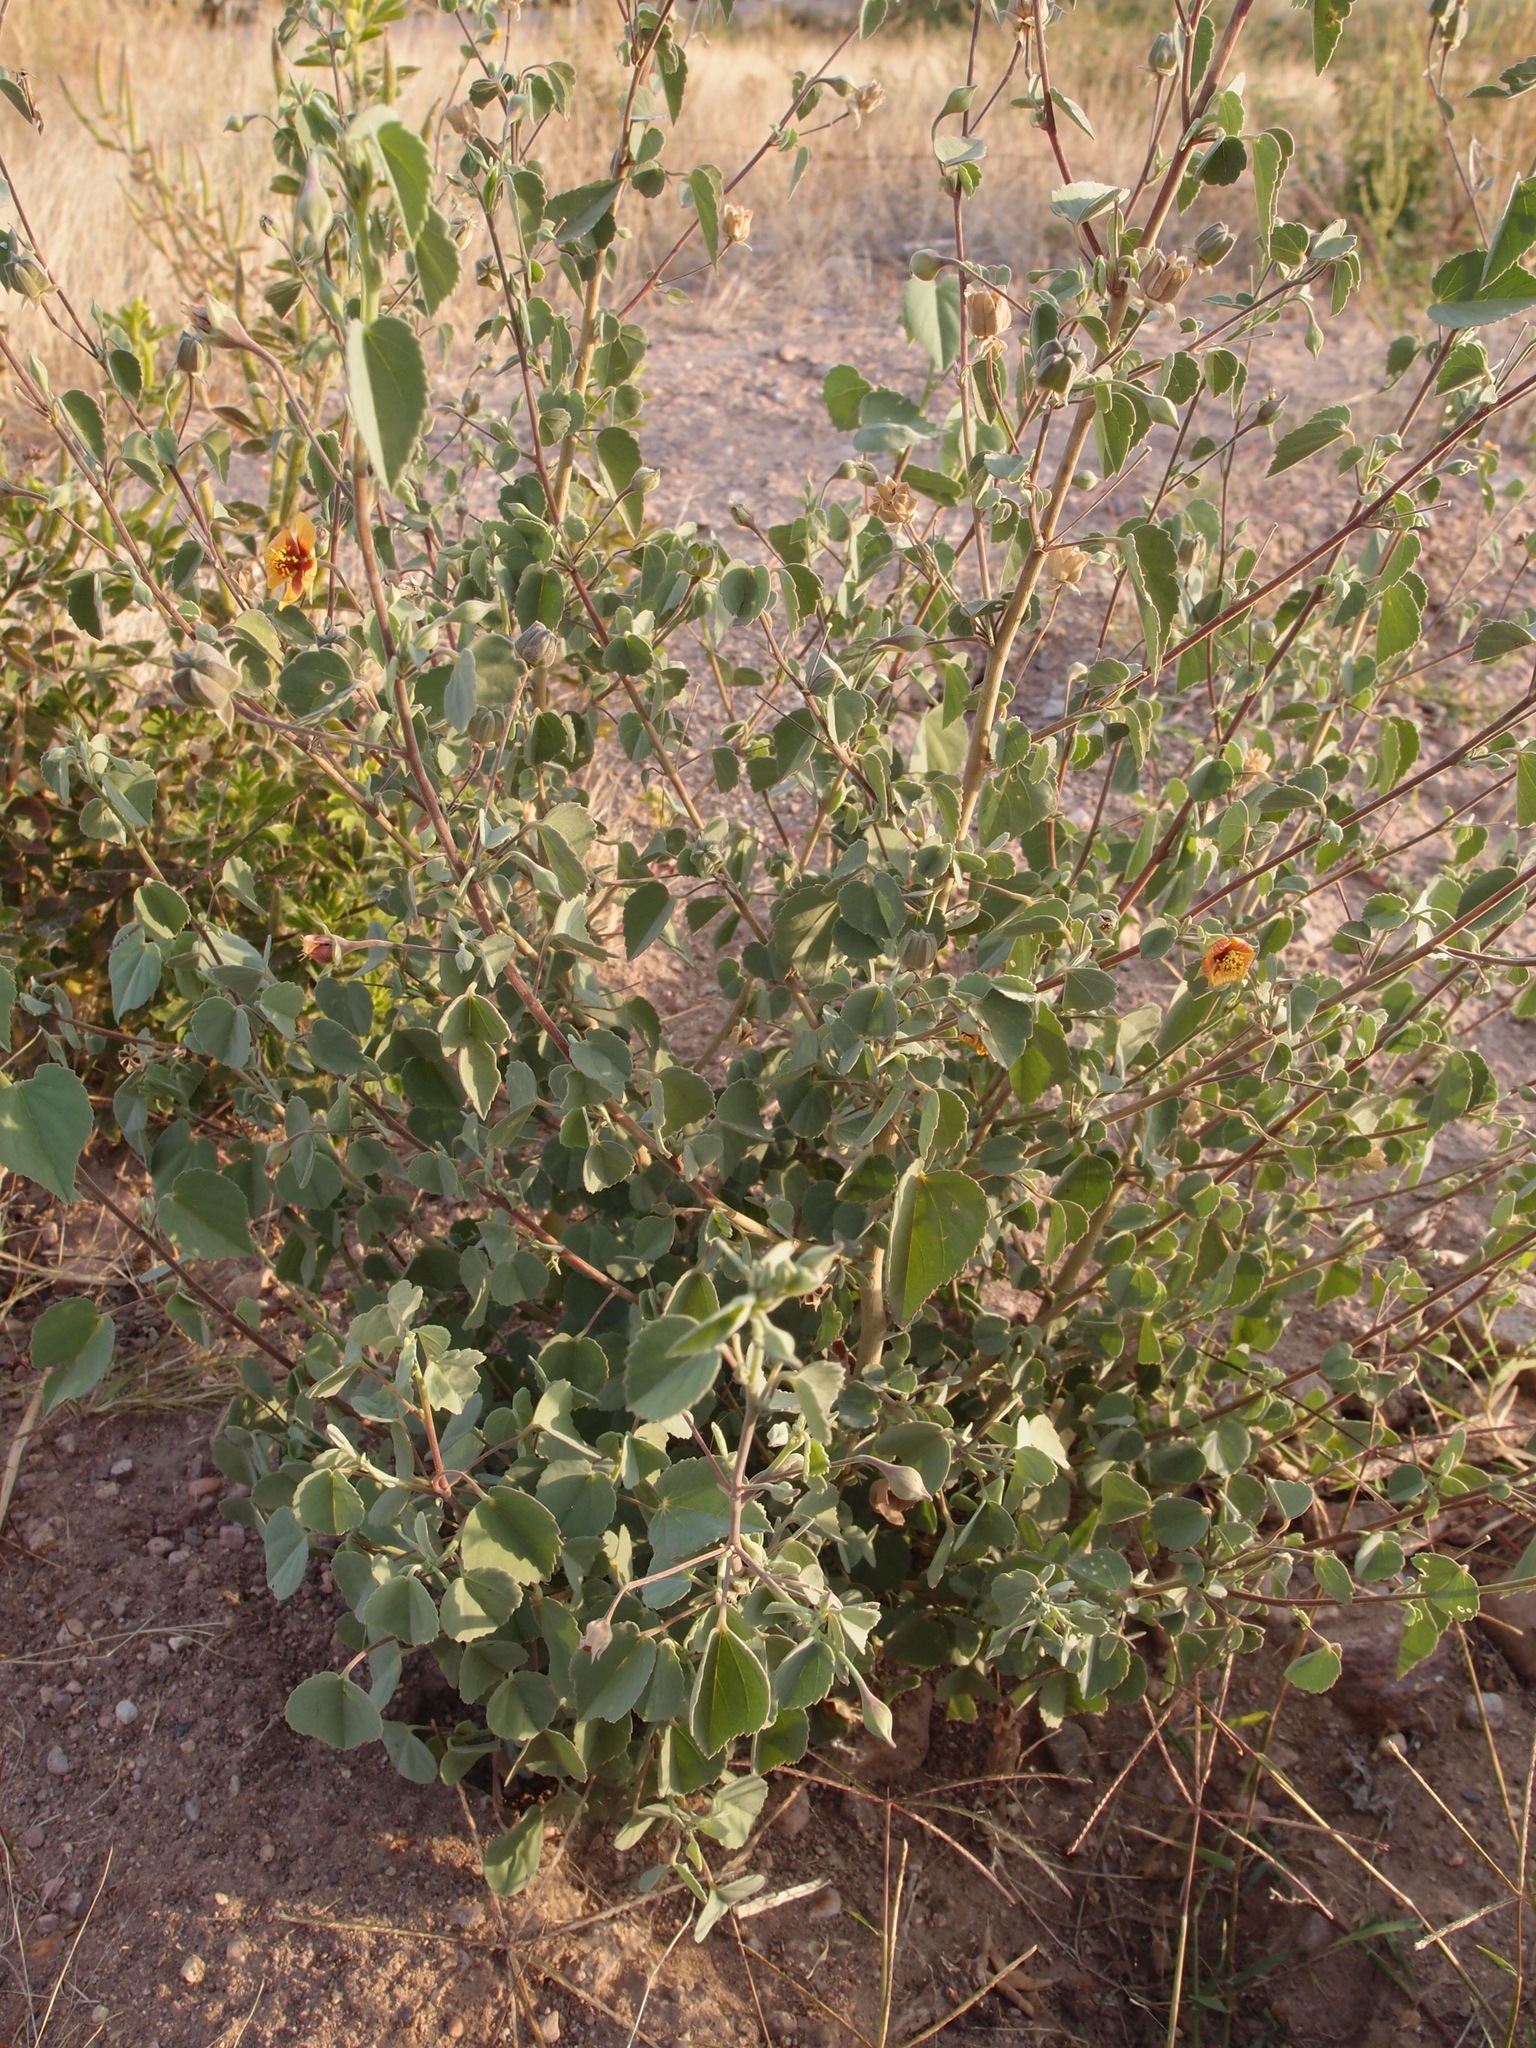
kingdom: Plantae
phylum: Tracheophyta
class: Magnoliopsida
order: Malvales
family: Malvaceae
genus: Abutilon
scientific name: Abutilon incanum
